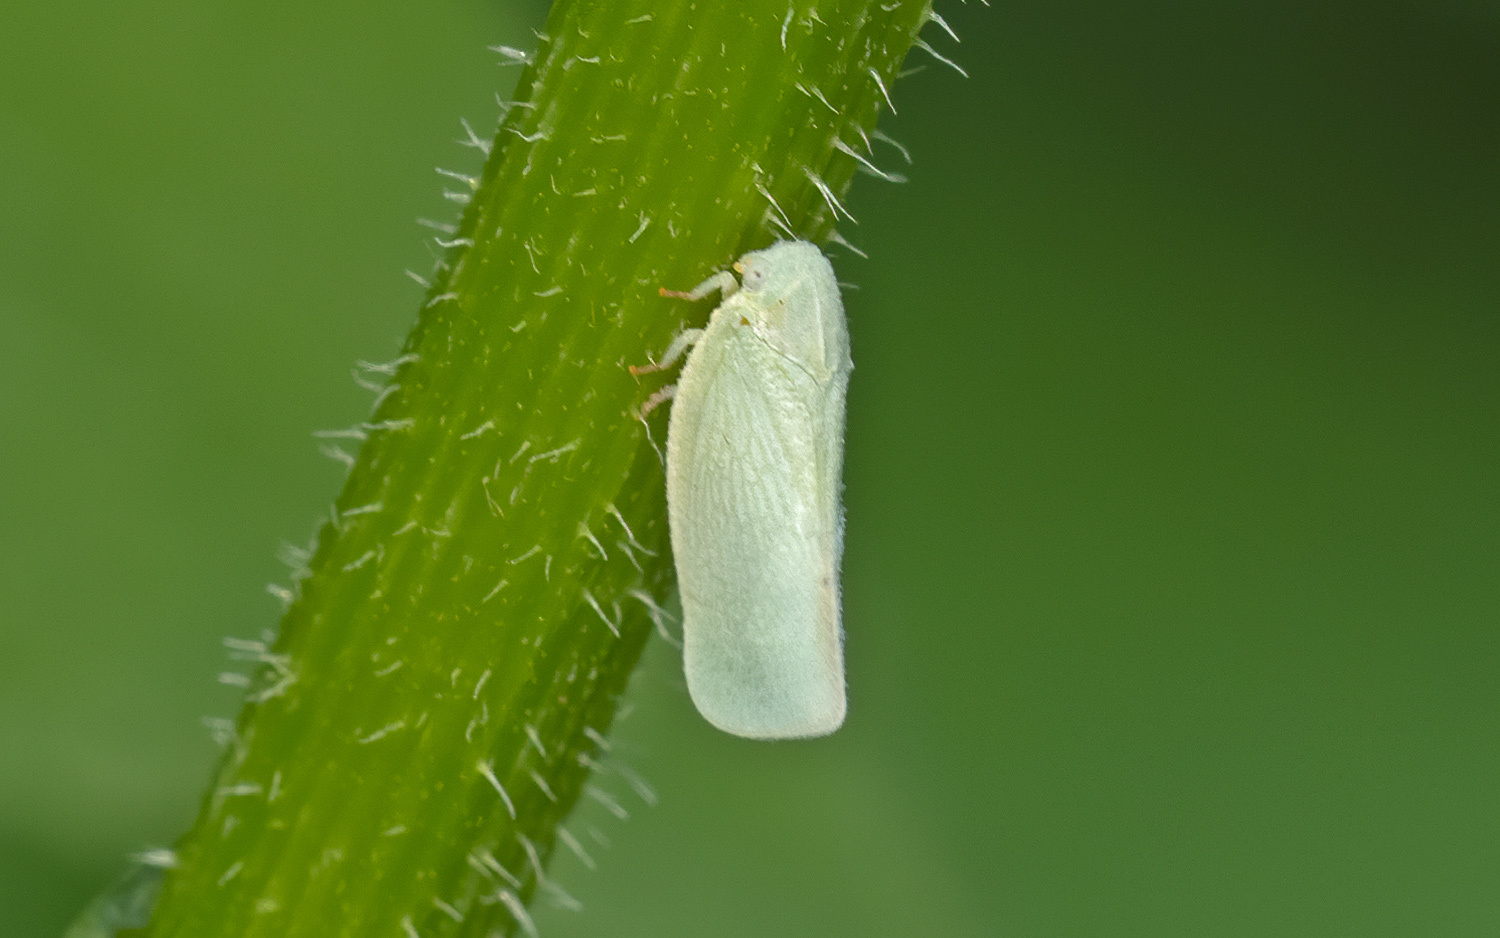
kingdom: Animalia
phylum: Arthropoda
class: Insecta
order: Hemiptera
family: Flatidae
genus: Flatormenis
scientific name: Flatormenis proxima
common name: Northern flatid planthopper
